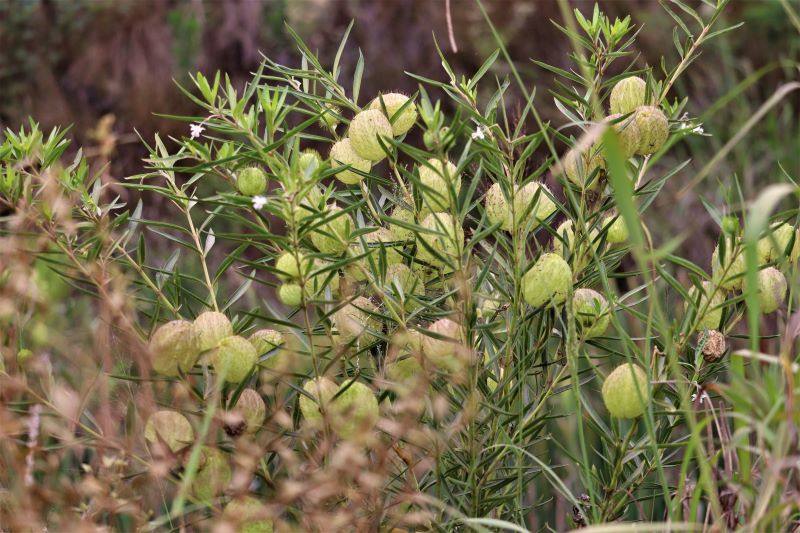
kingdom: Plantae
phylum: Tracheophyta
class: Magnoliopsida
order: Gentianales
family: Apocynaceae
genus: Gomphocarpus
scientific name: Gomphocarpus physocarpus
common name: Balloon cotton bush
